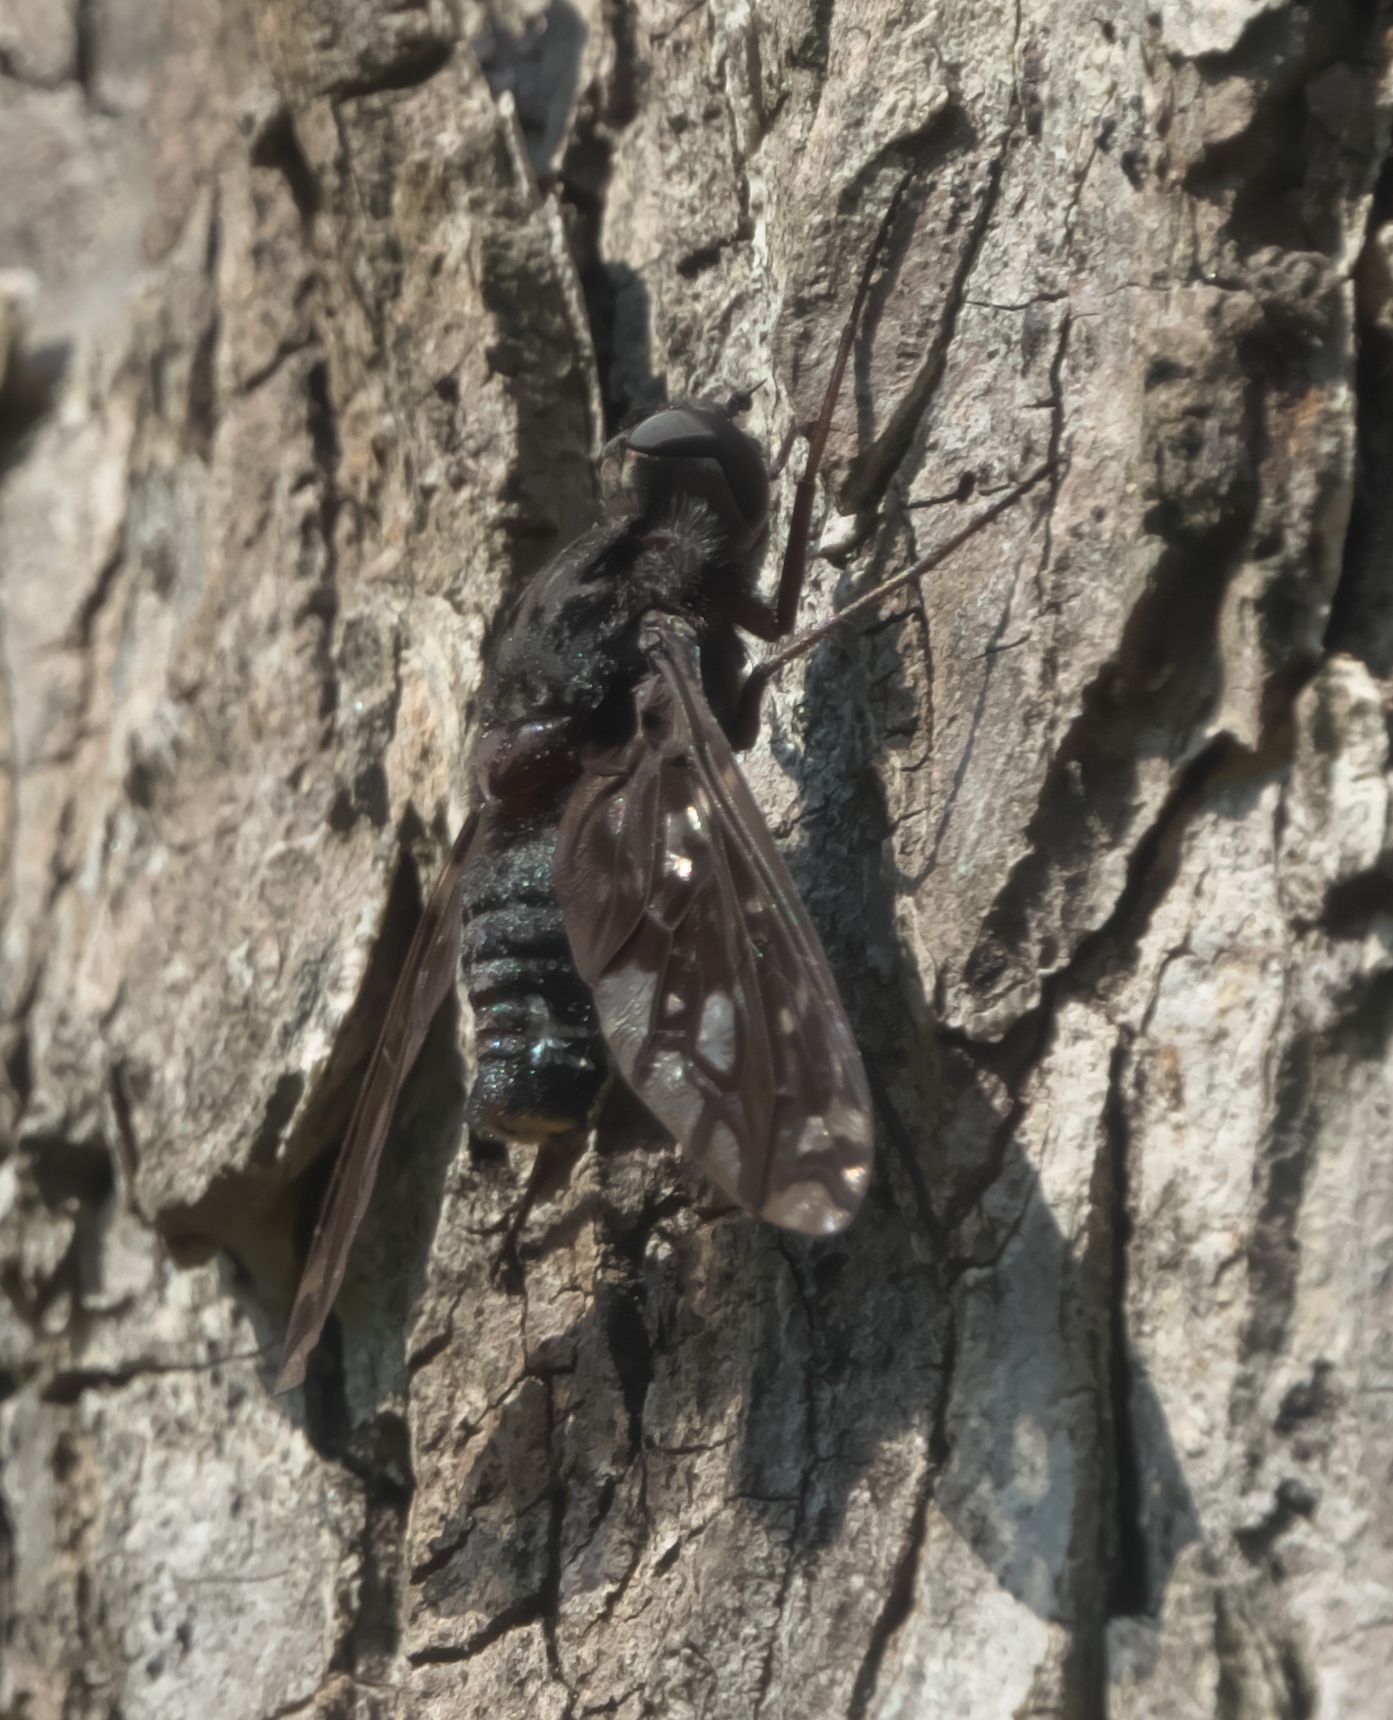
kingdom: Animalia
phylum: Arthropoda
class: Insecta
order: Diptera
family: Bombyliidae
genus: Xenox
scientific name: Xenox tigrinus
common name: Tiger bee fly
